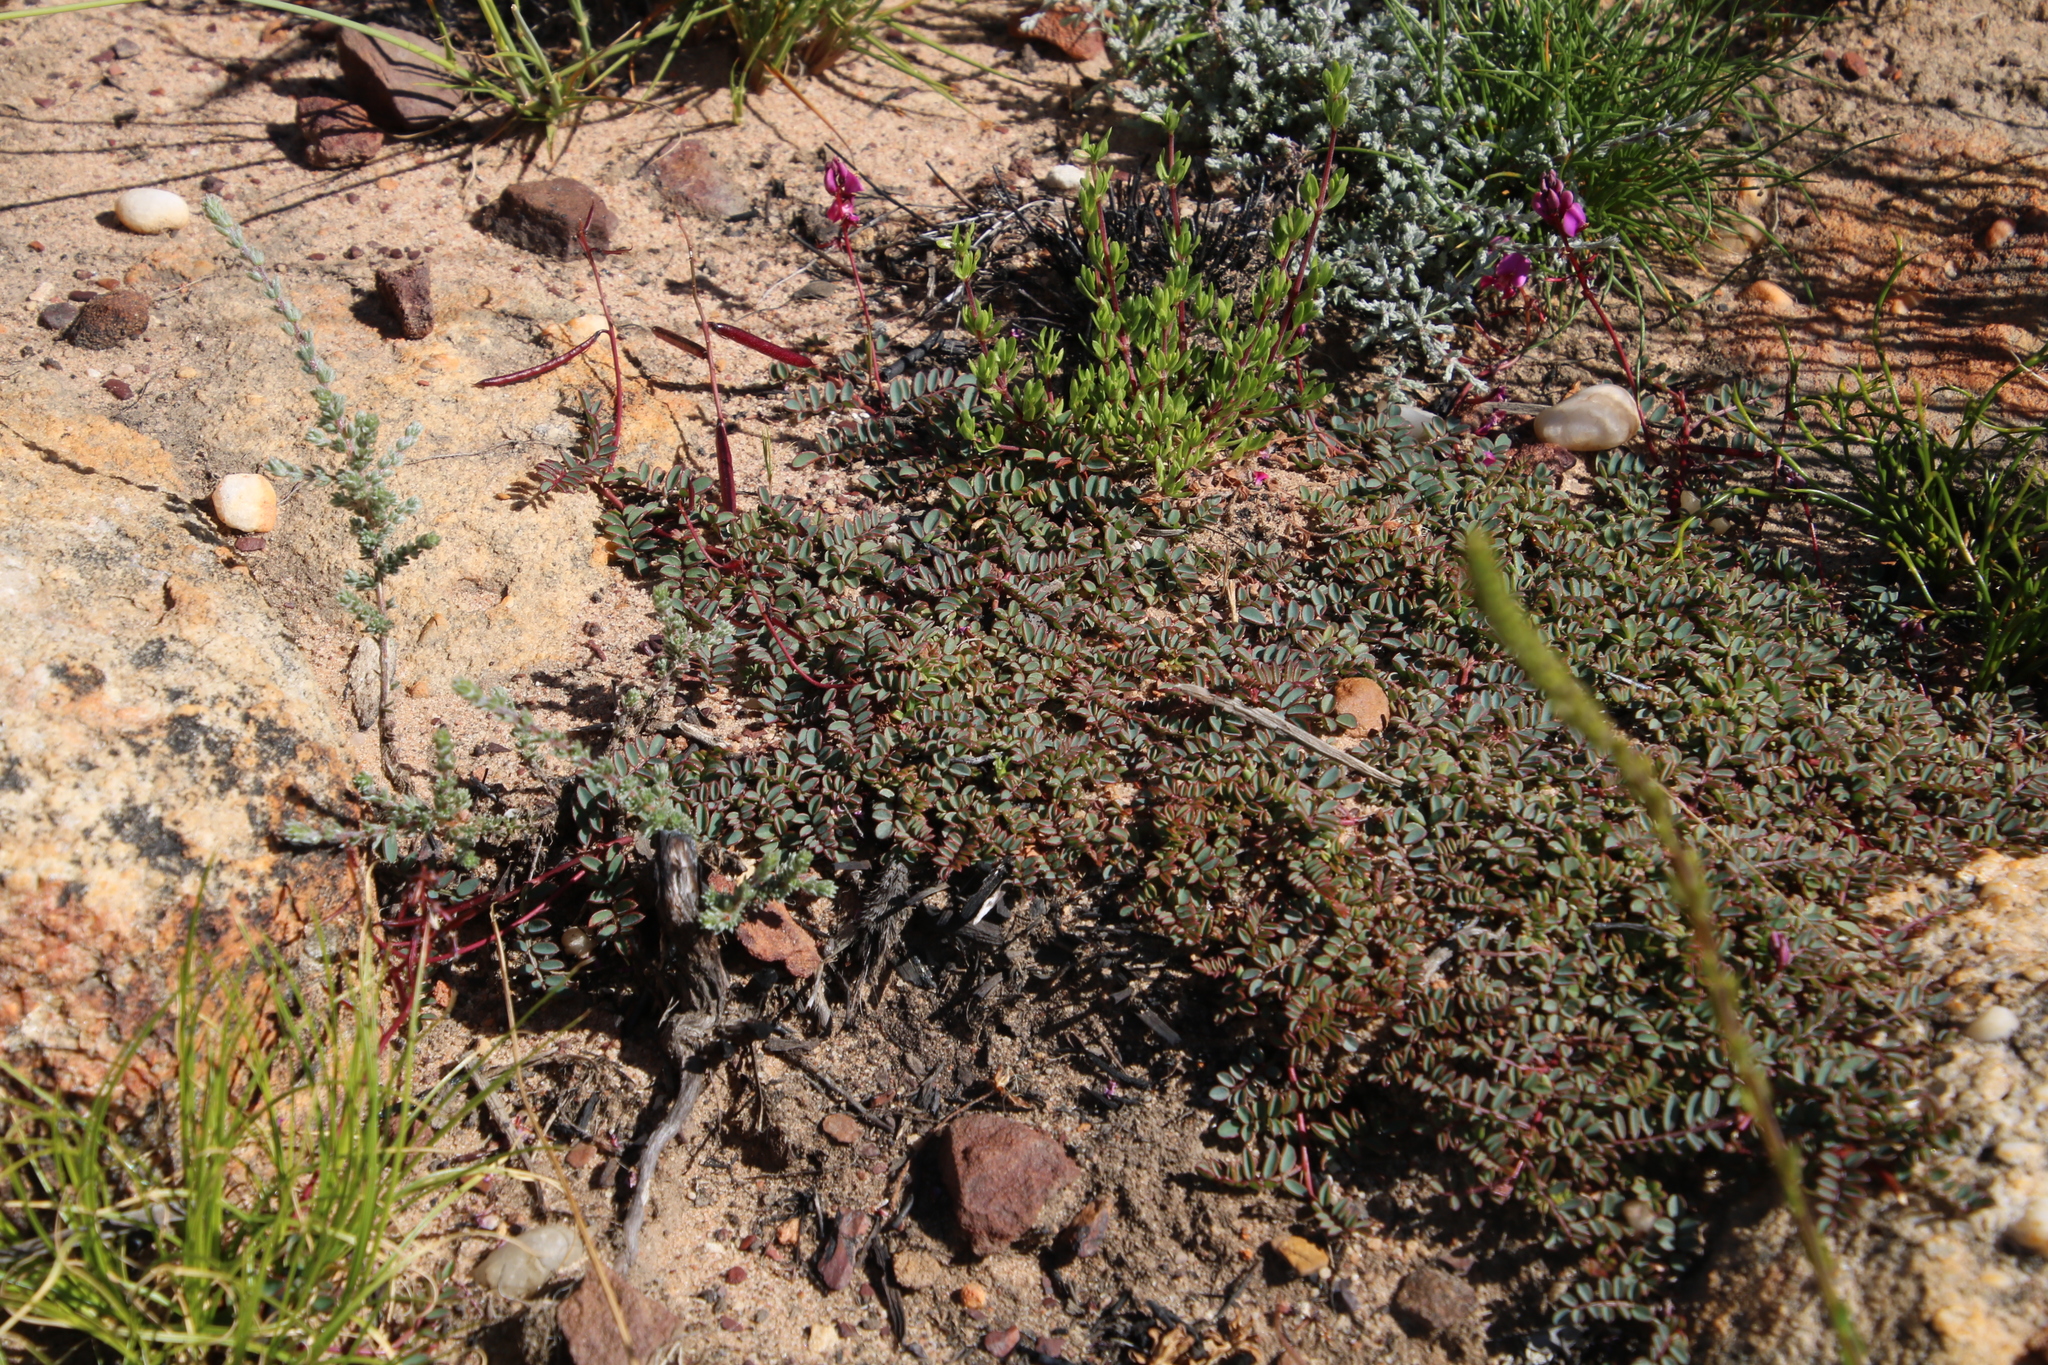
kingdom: Plantae
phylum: Tracheophyta
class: Magnoliopsida
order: Fabales
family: Fabaceae
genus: Indigofera
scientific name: Indigofera humifusa
